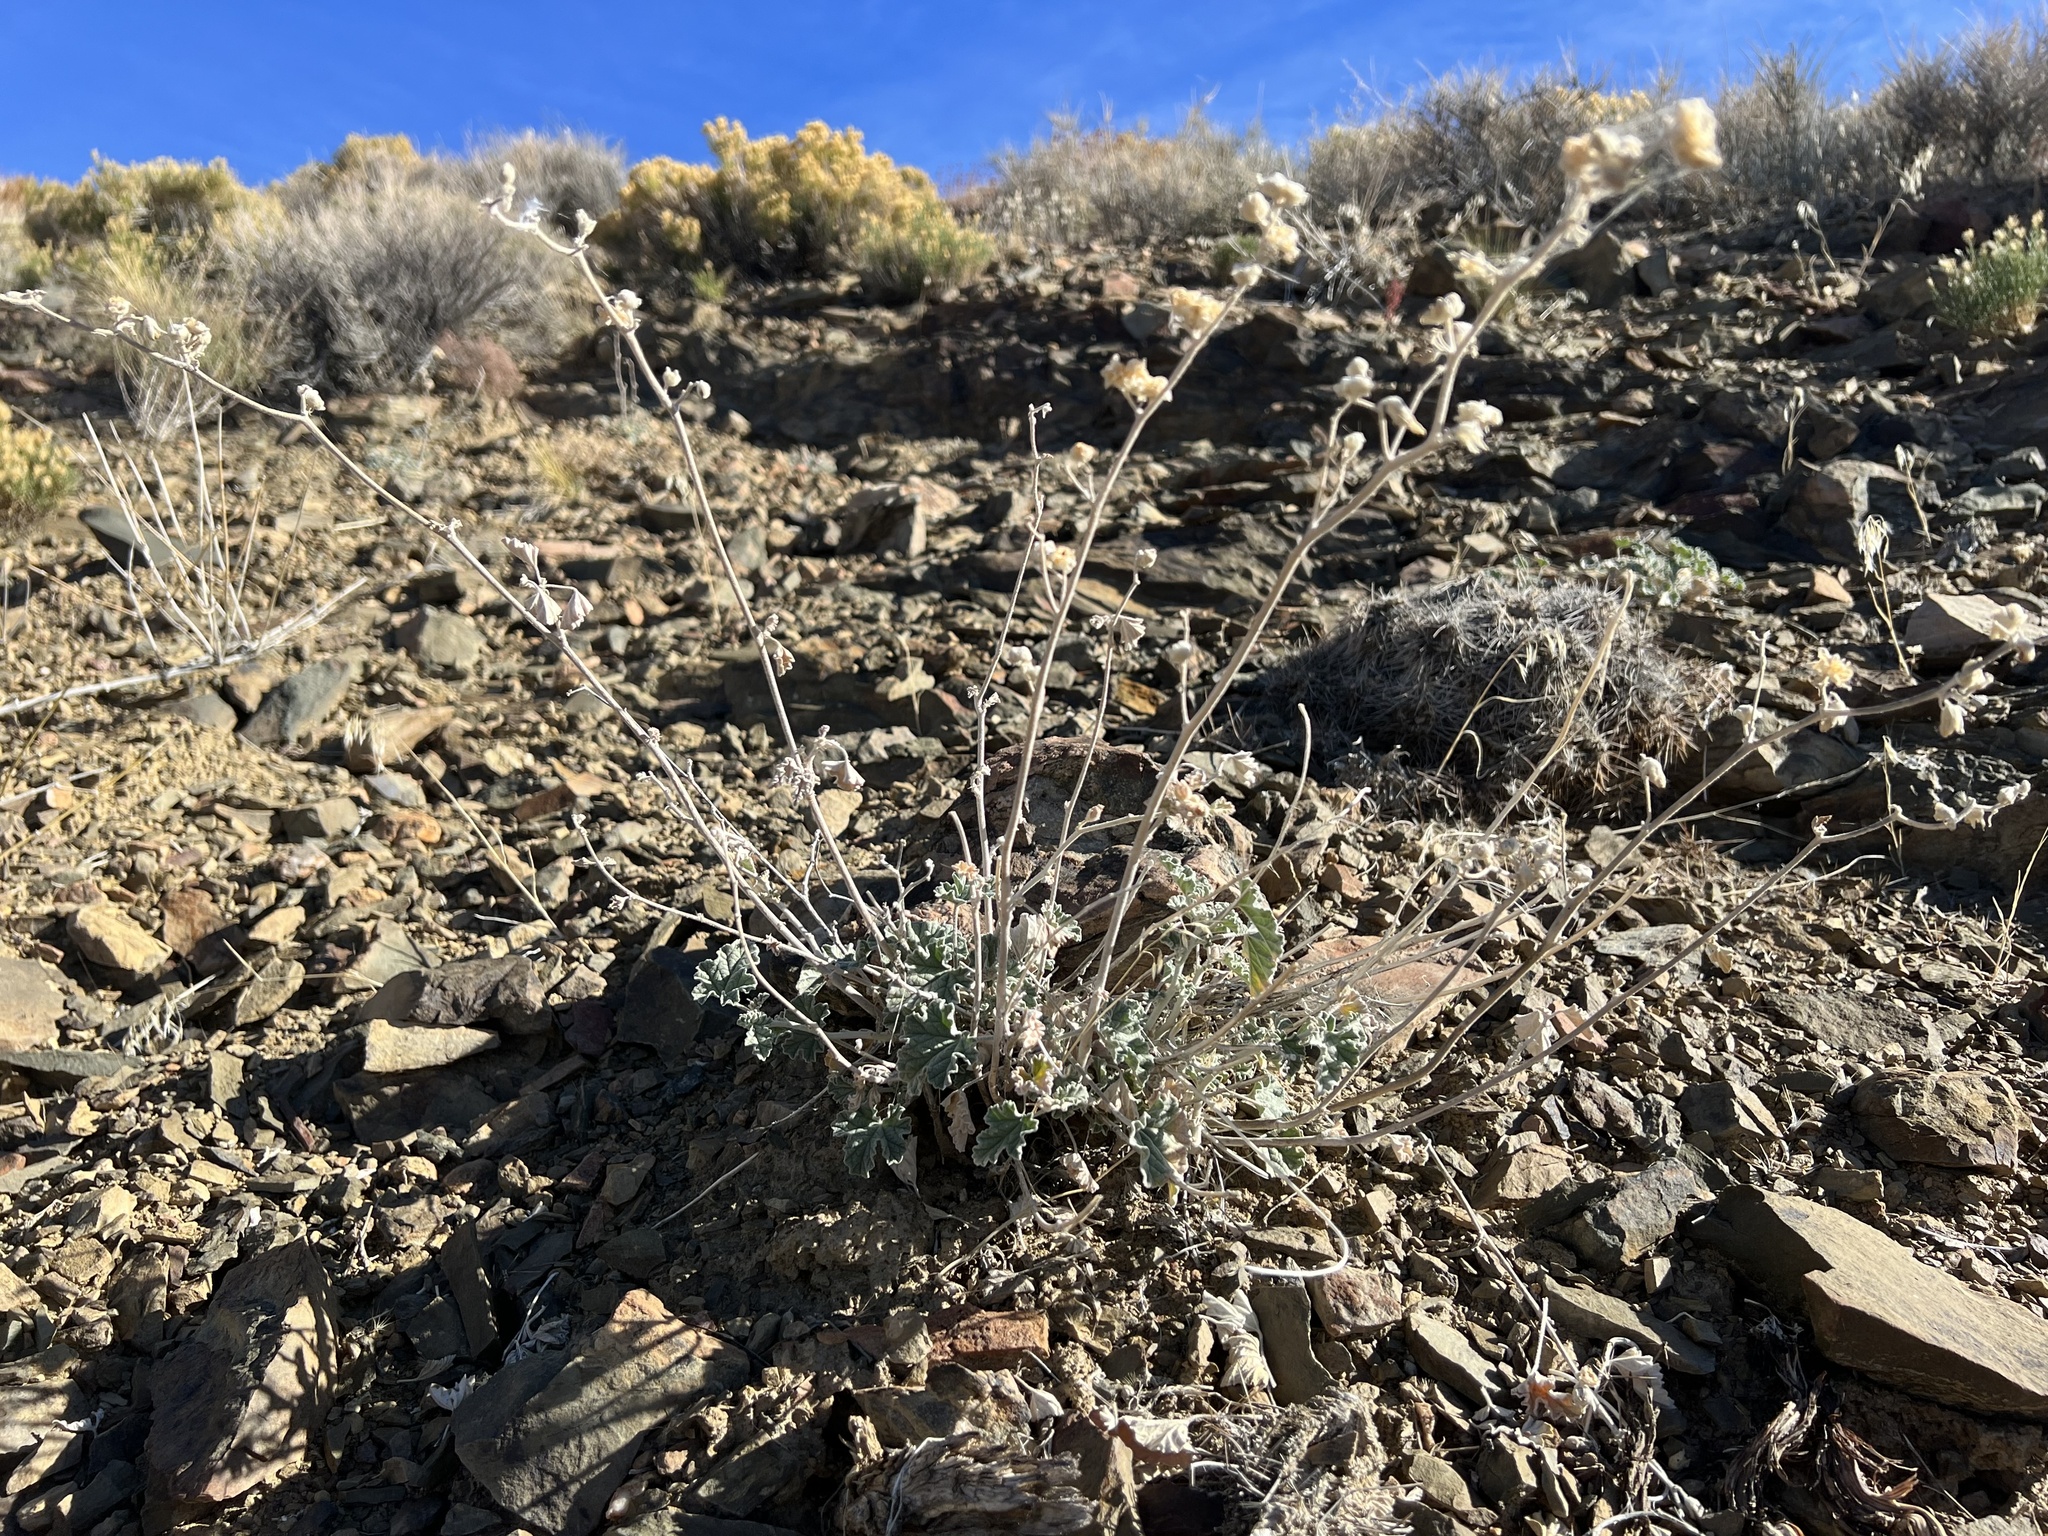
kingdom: Plantae
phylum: Tracheophyta
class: Magnoliopsida
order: Malvales
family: Malvaceae
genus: Sphaeralcea
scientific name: Sphaeralcea ambigua
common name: Apricot globe-mallow
